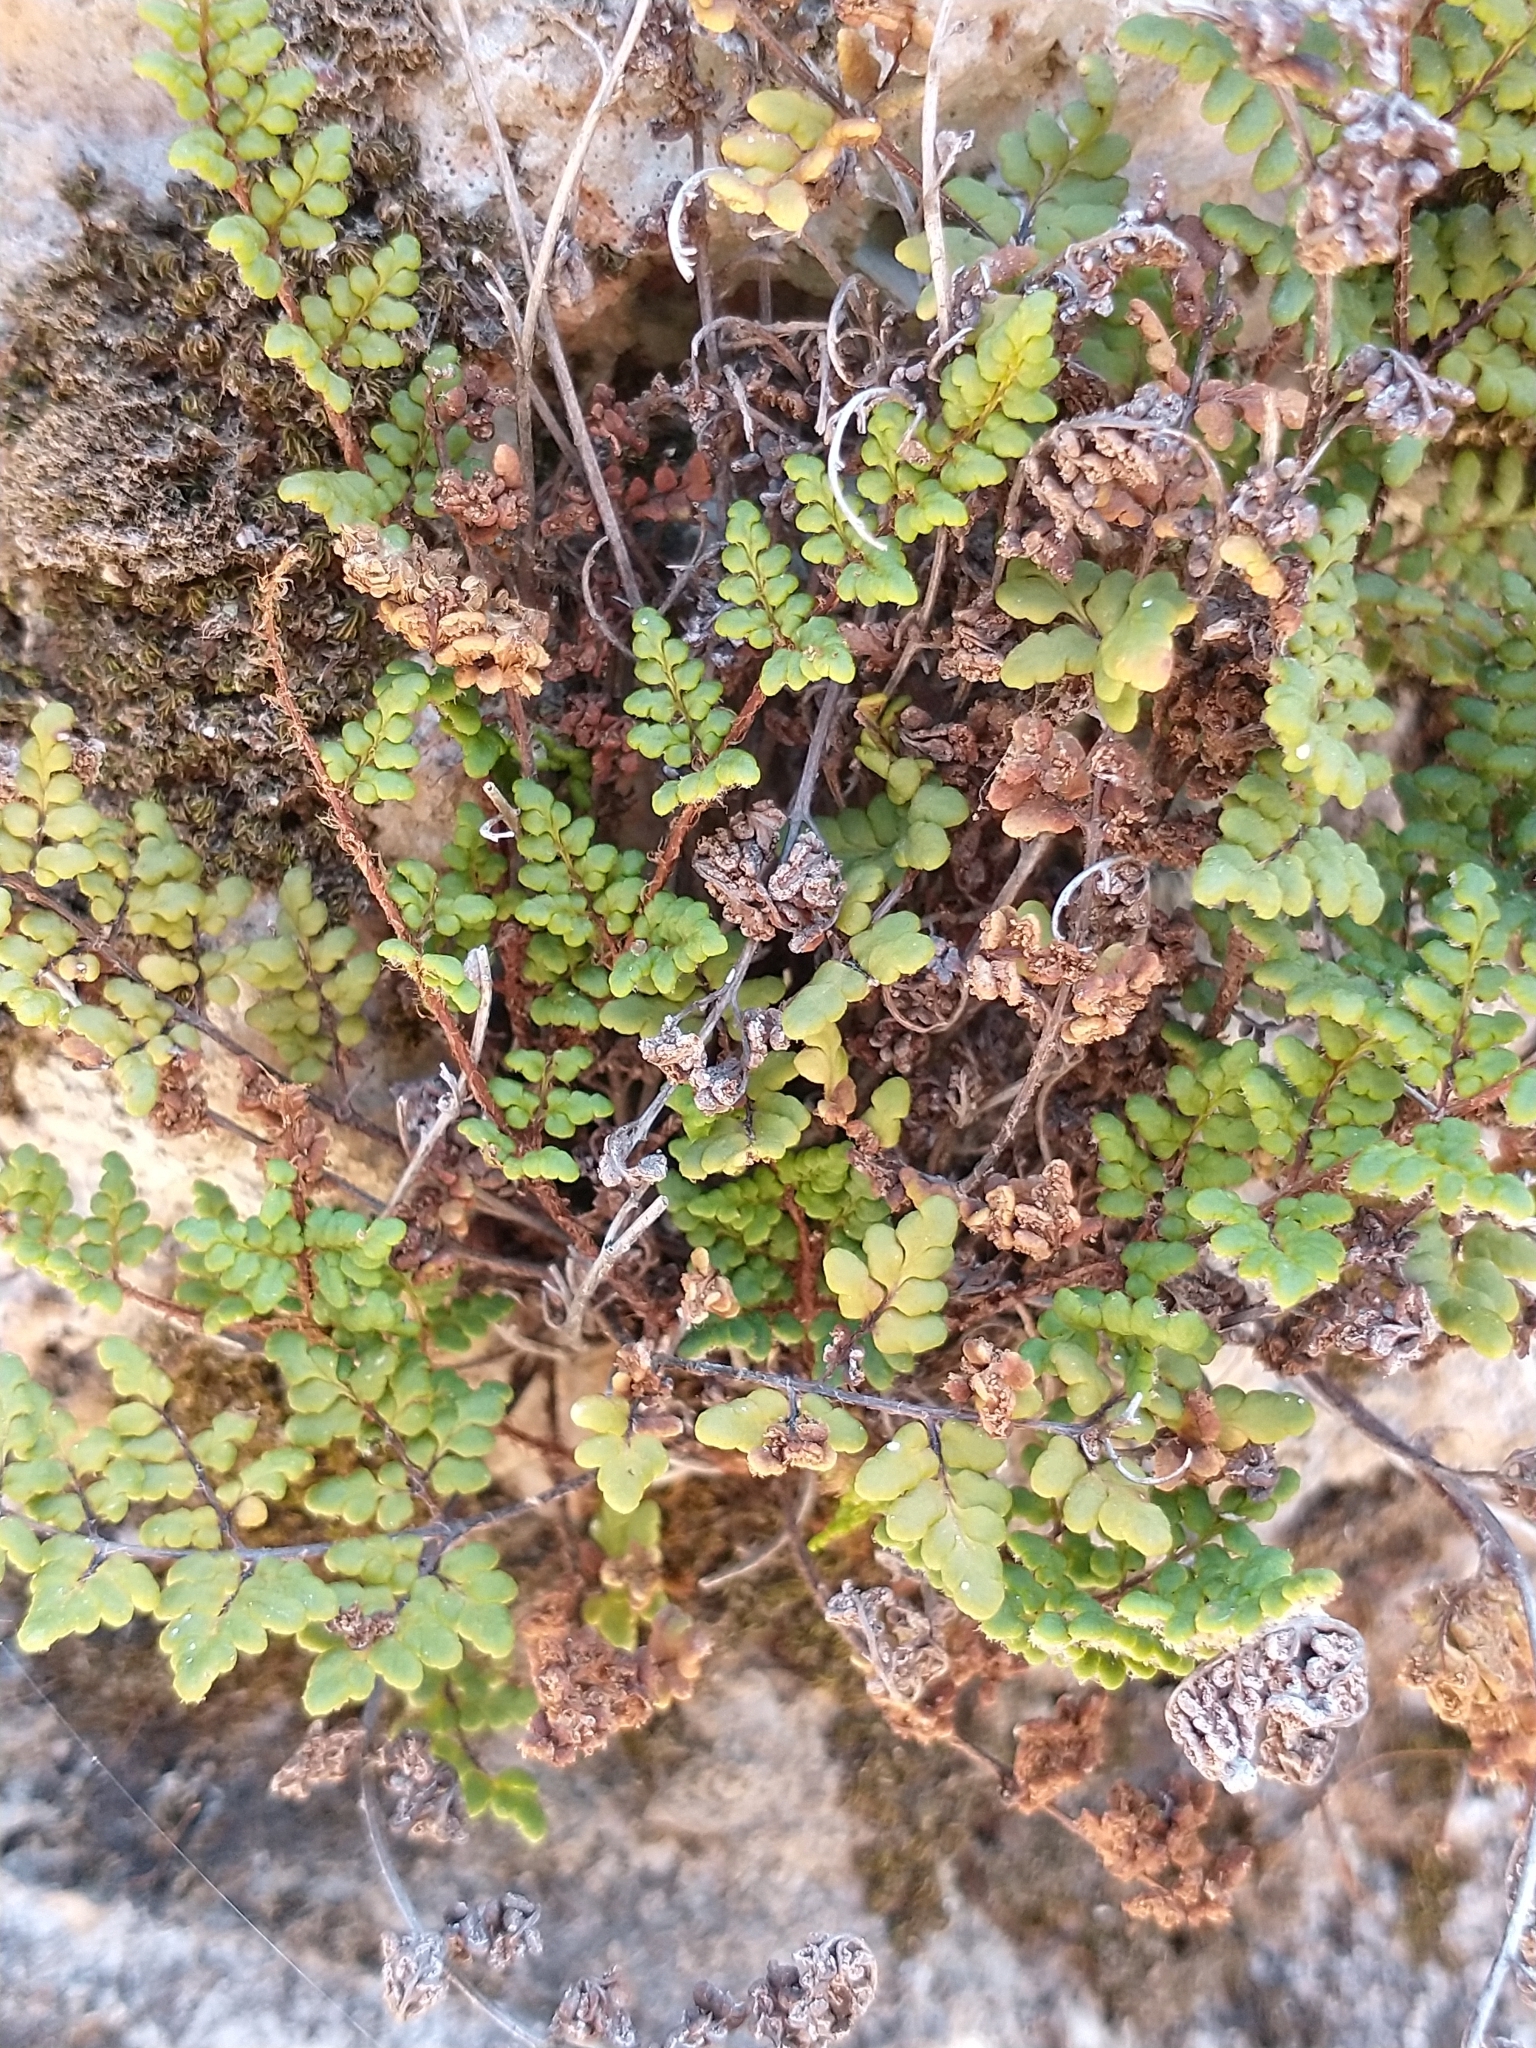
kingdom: Plantae
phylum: Tracheophyta
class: Polypodiopsida
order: Polypodiales
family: Pteridaceae
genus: Oeosporangium
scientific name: Oeosporangium pteridioides
